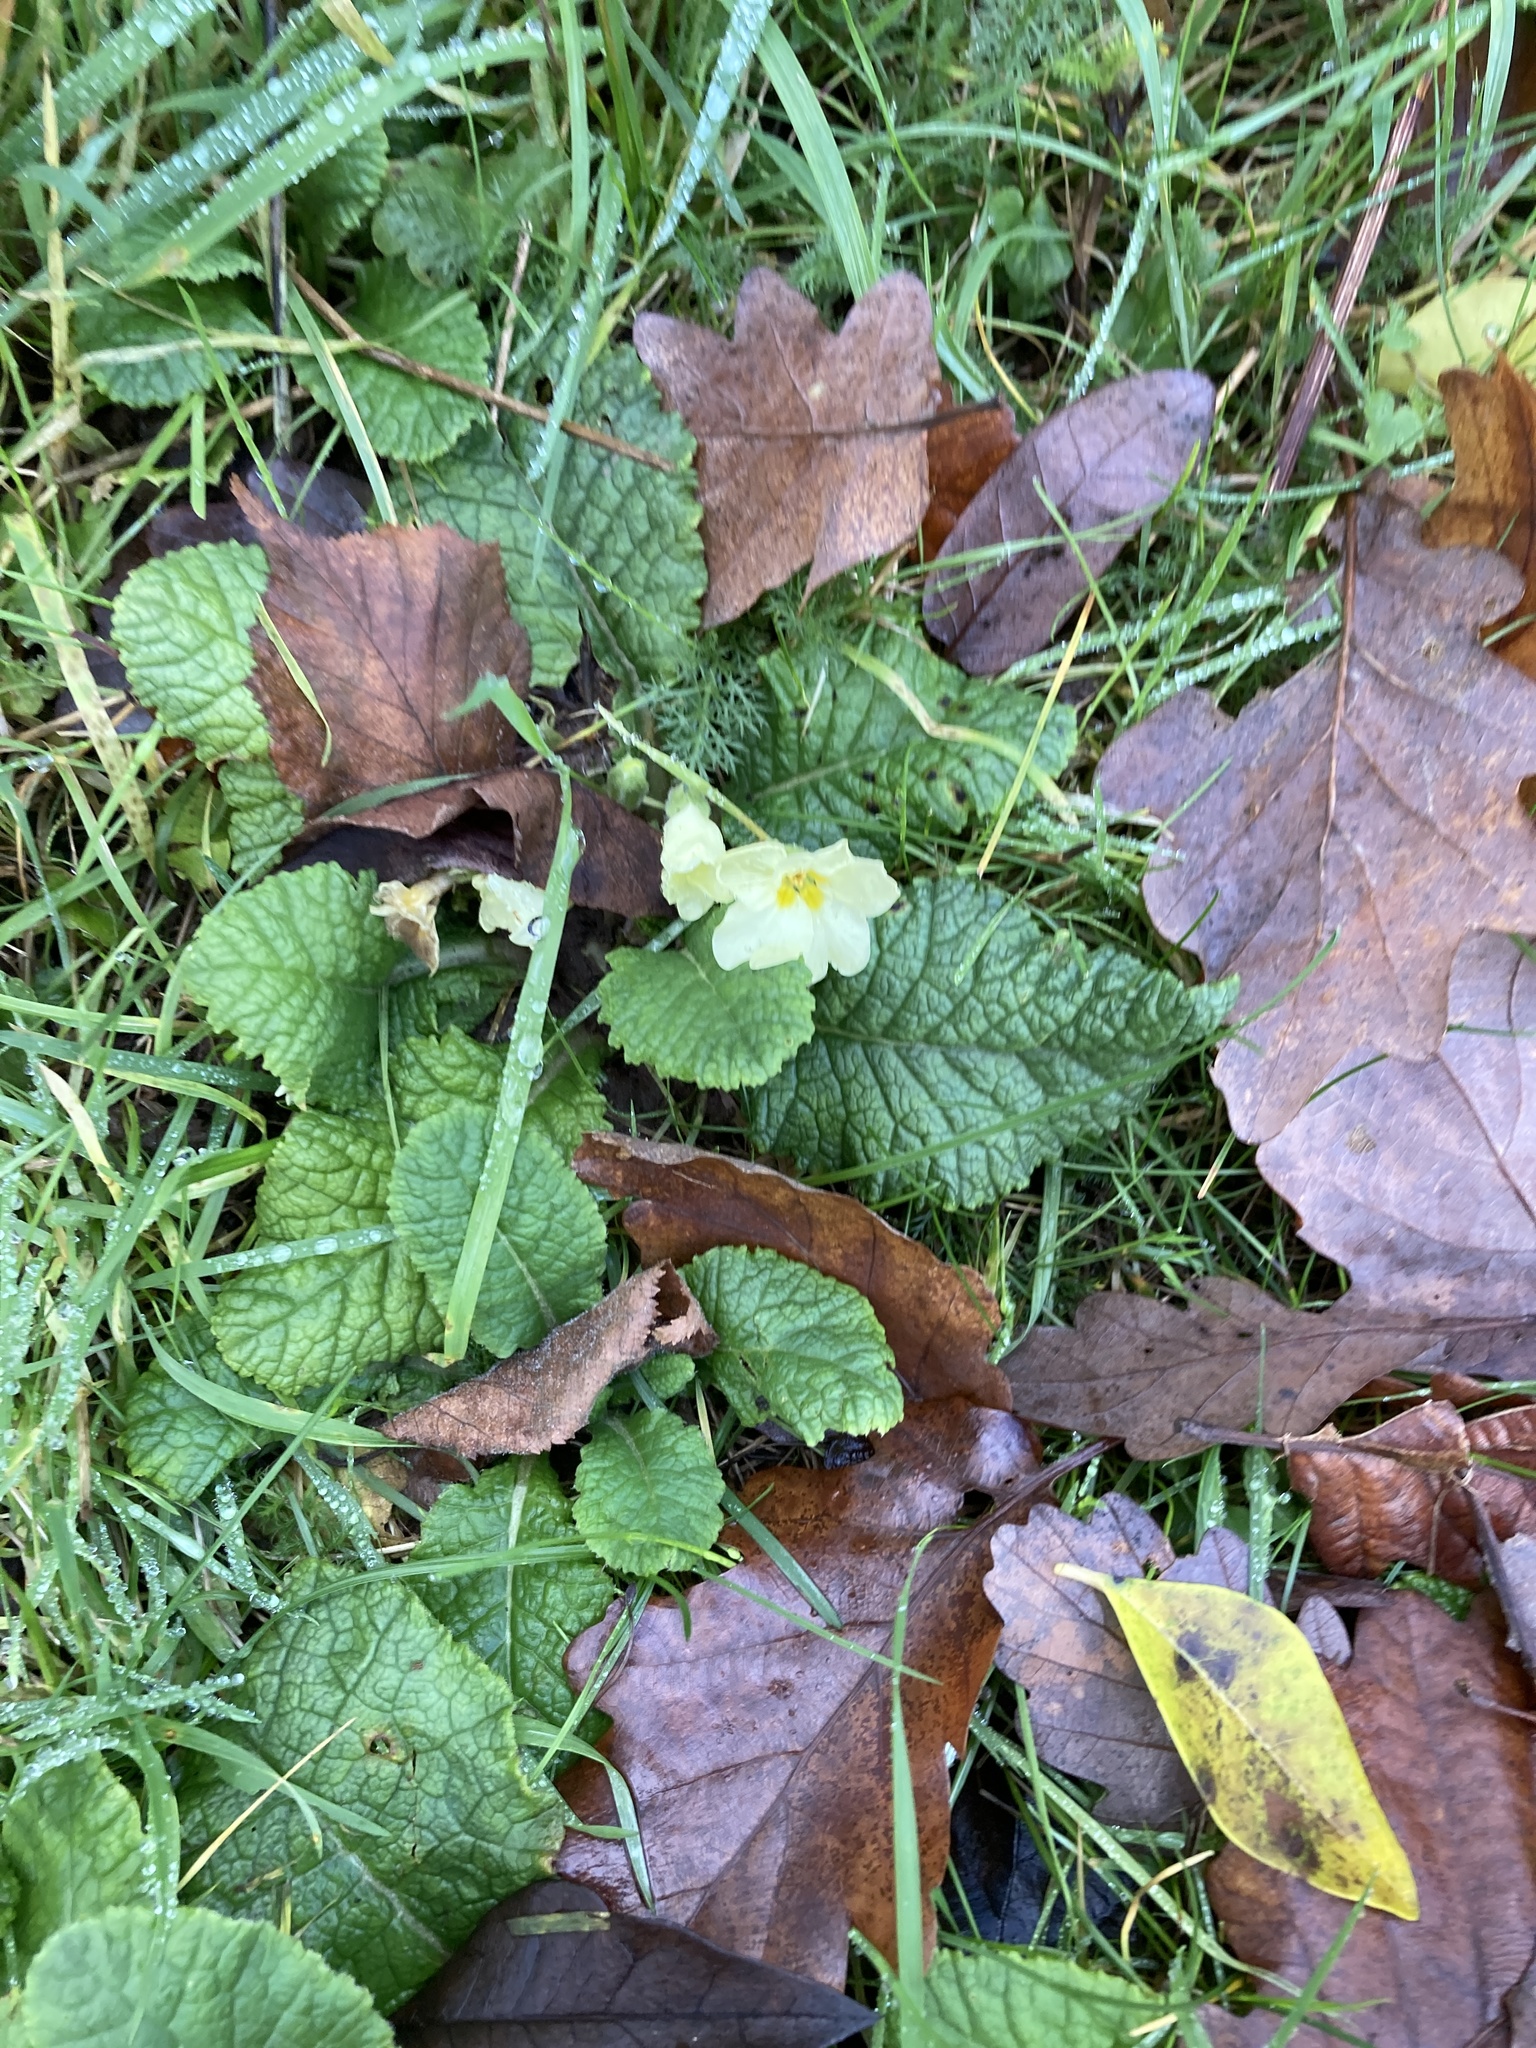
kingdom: Plantae
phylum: Tracheophyta
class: Magnoliopsida
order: Ericales
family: Primulaceae
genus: Primula
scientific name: Primula vulgaris
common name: Primrose
